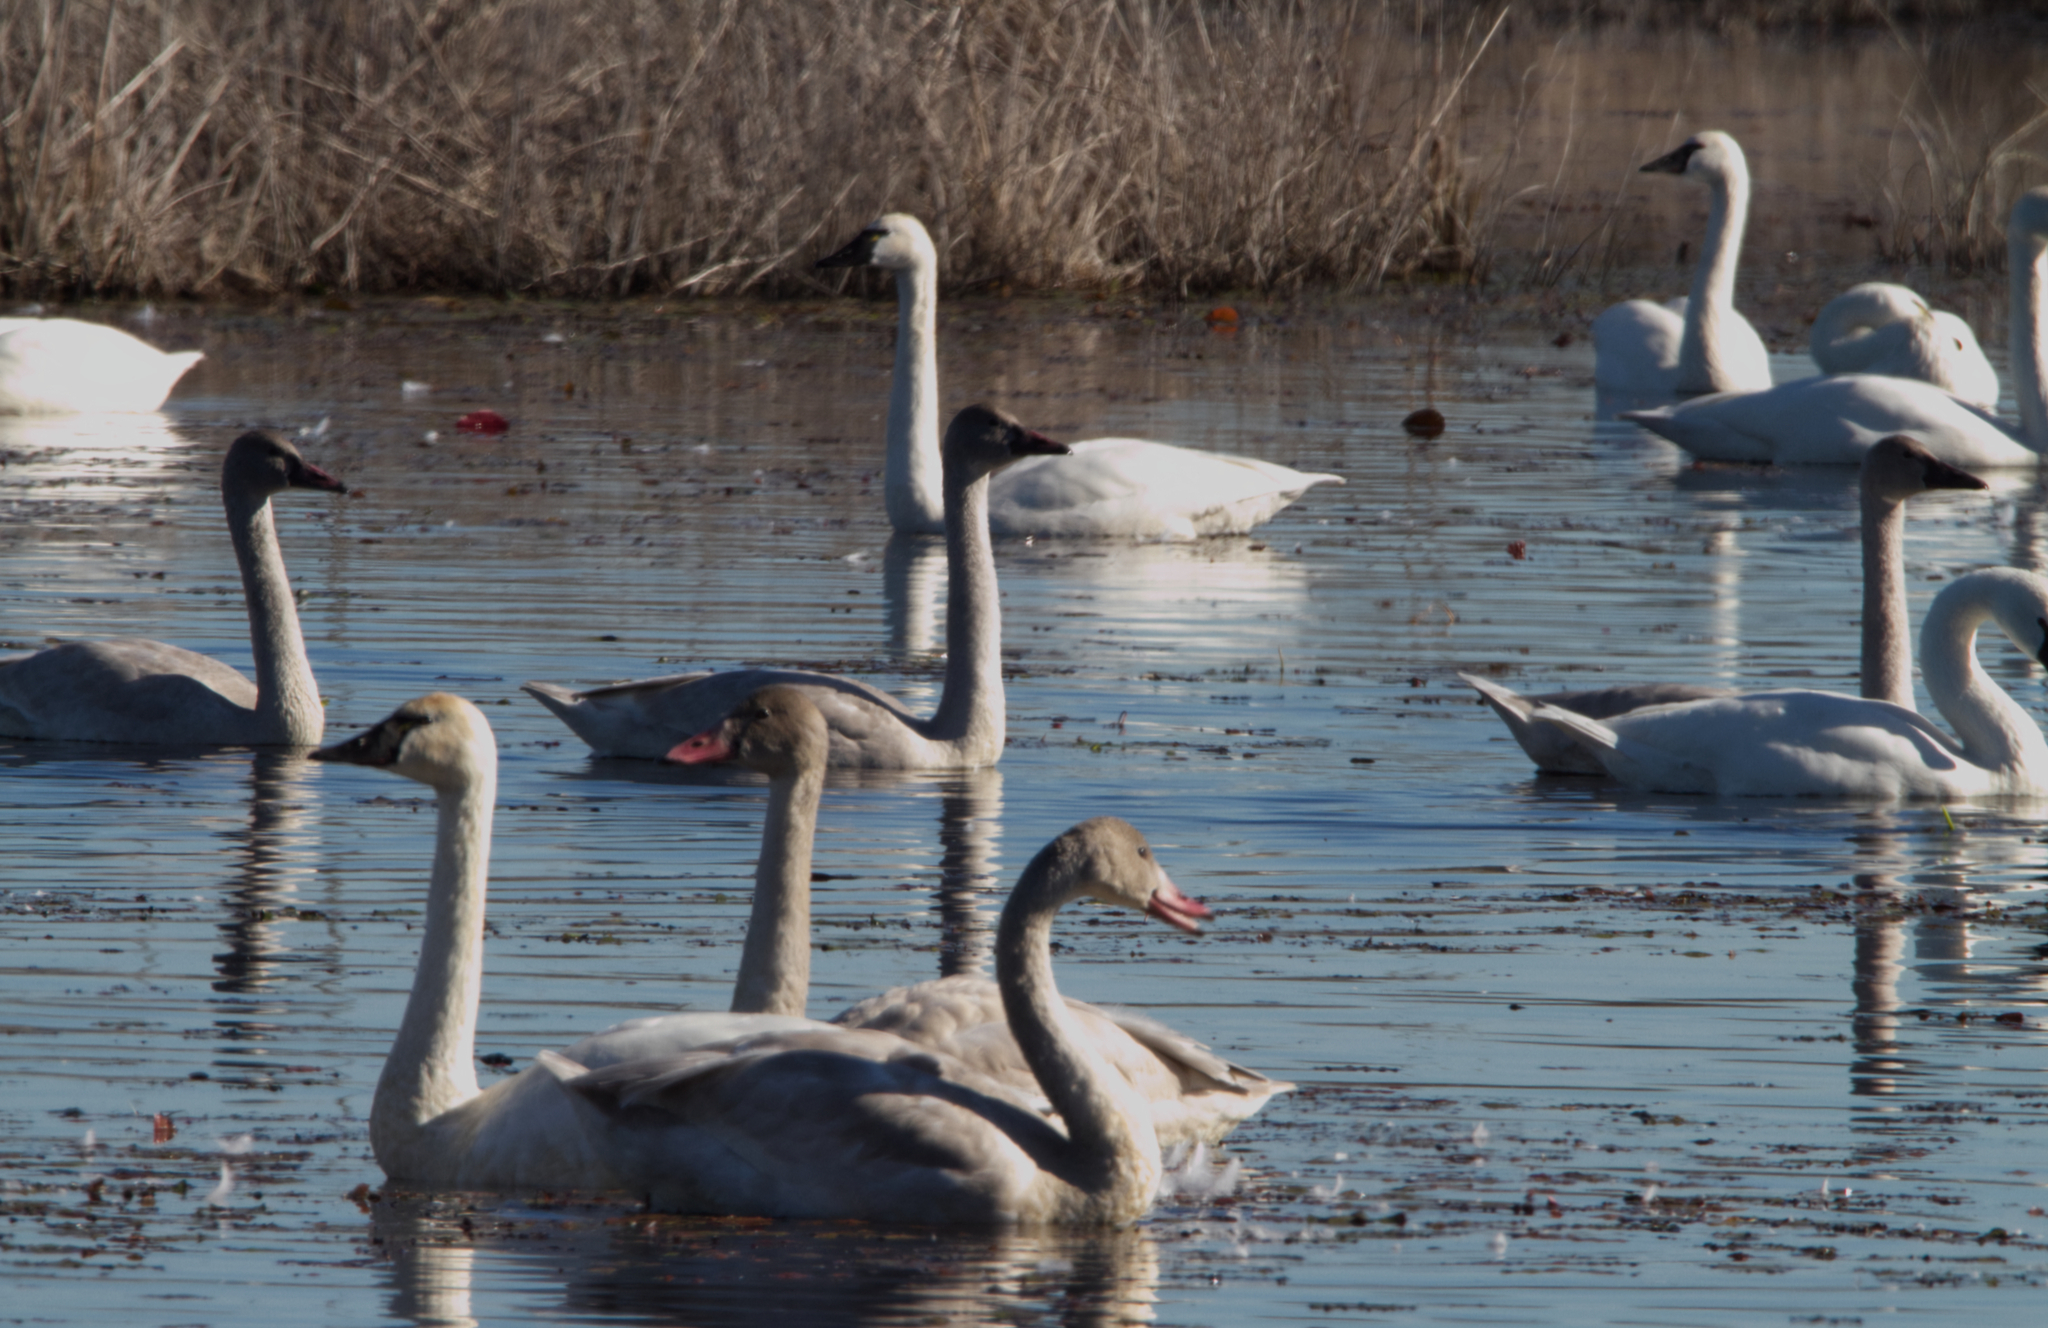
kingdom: Animalia
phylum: Chordata
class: Aves
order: Anseriformes
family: Anatidae
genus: Cygnus
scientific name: Cygnus columbianus
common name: Tundra swan
